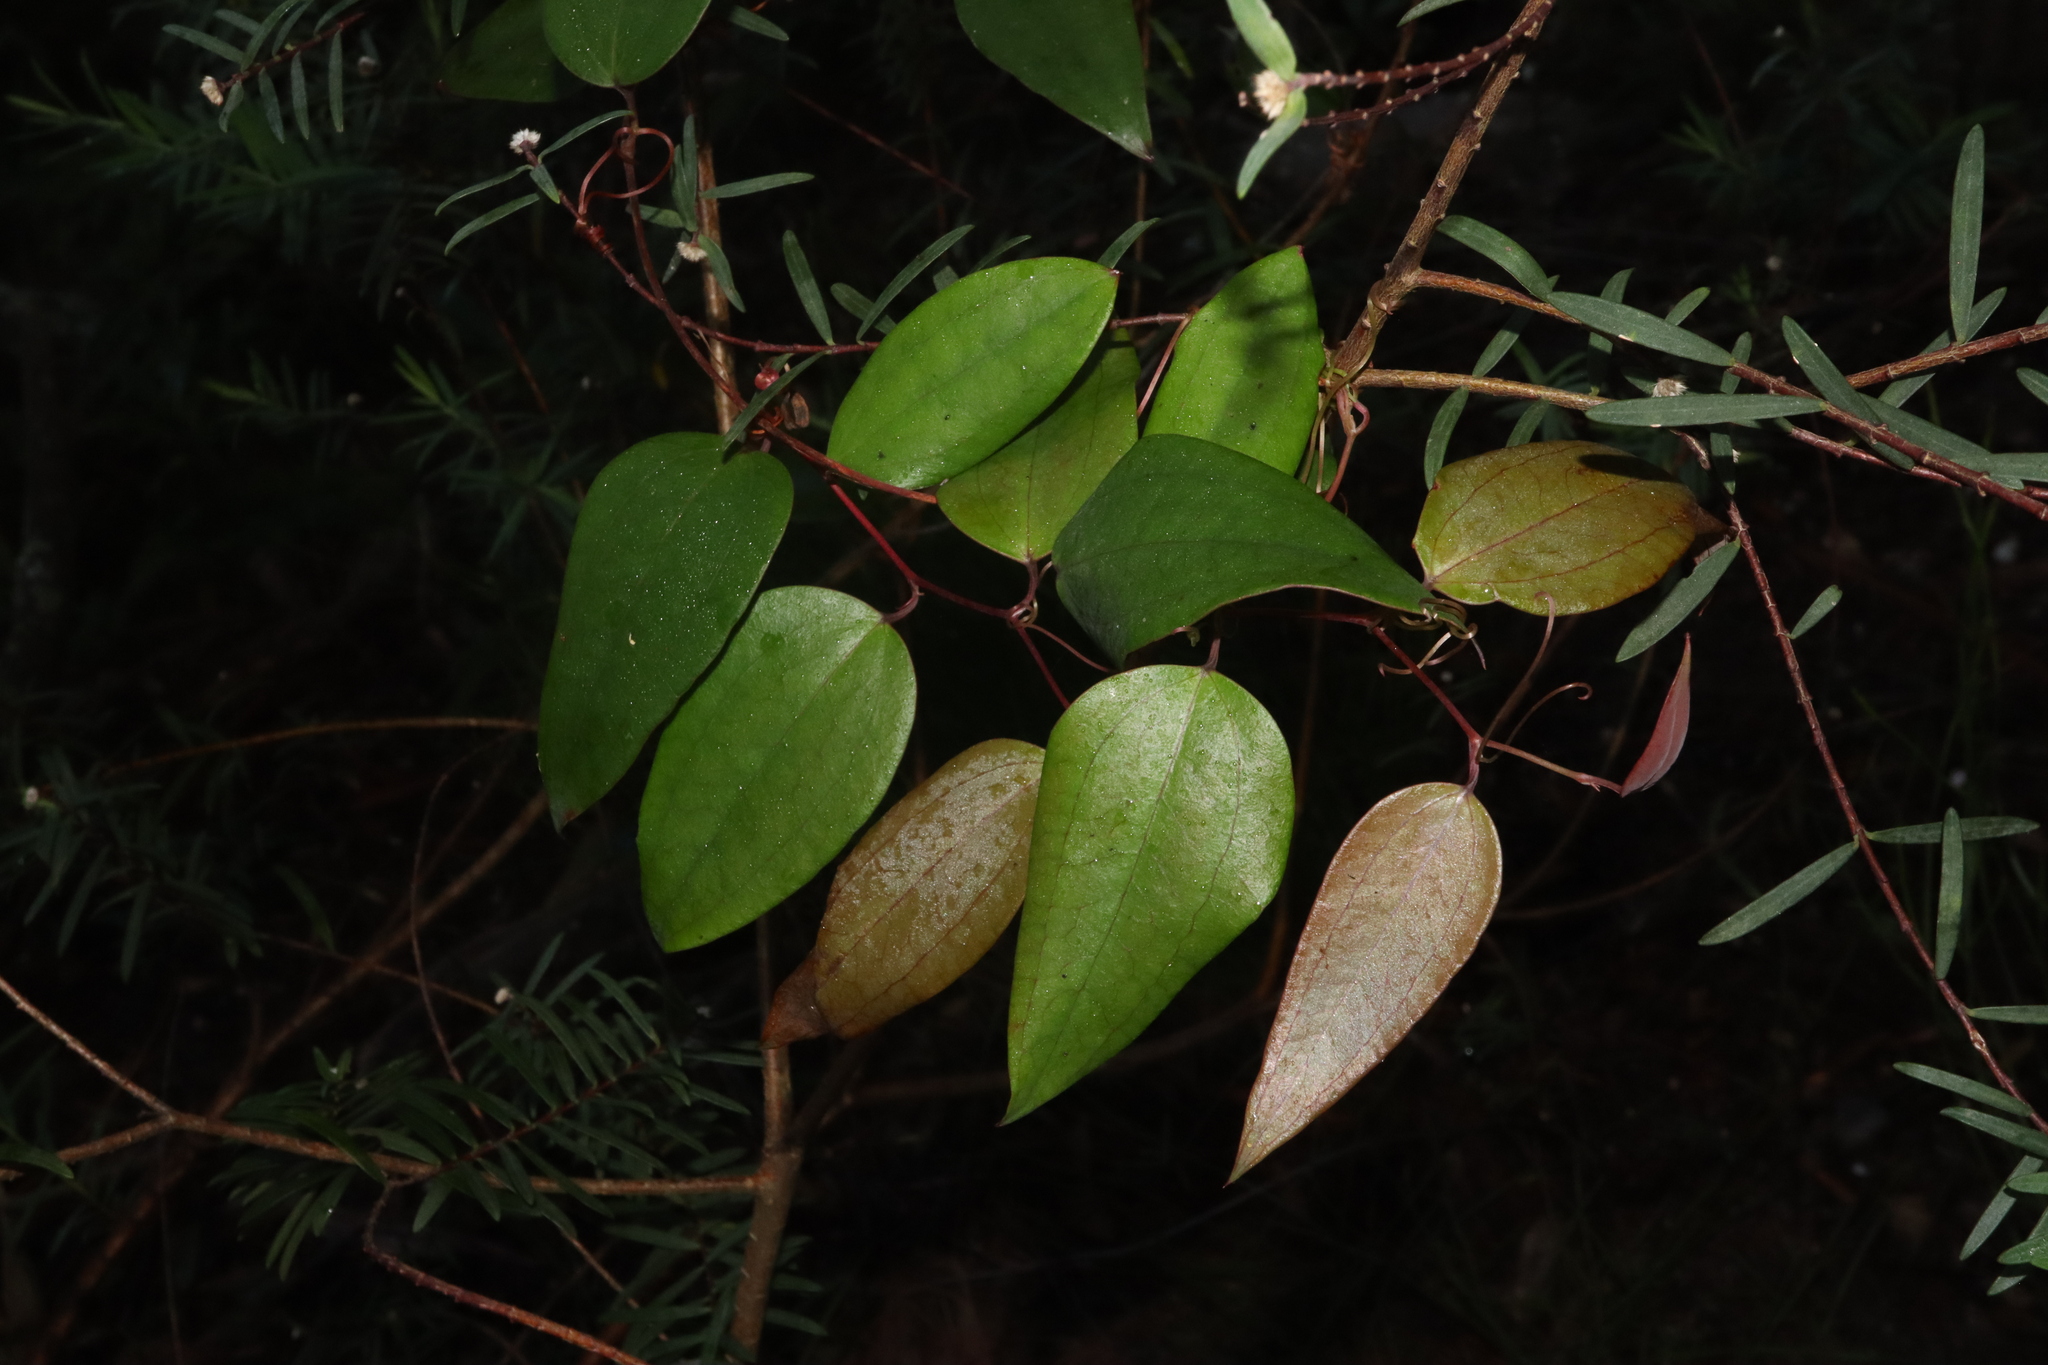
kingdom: Plantae
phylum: Tracheophyta
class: Liliopsida
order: Liliales
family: Smilacaceae
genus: Smilax
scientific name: Smilax glyciphylla
